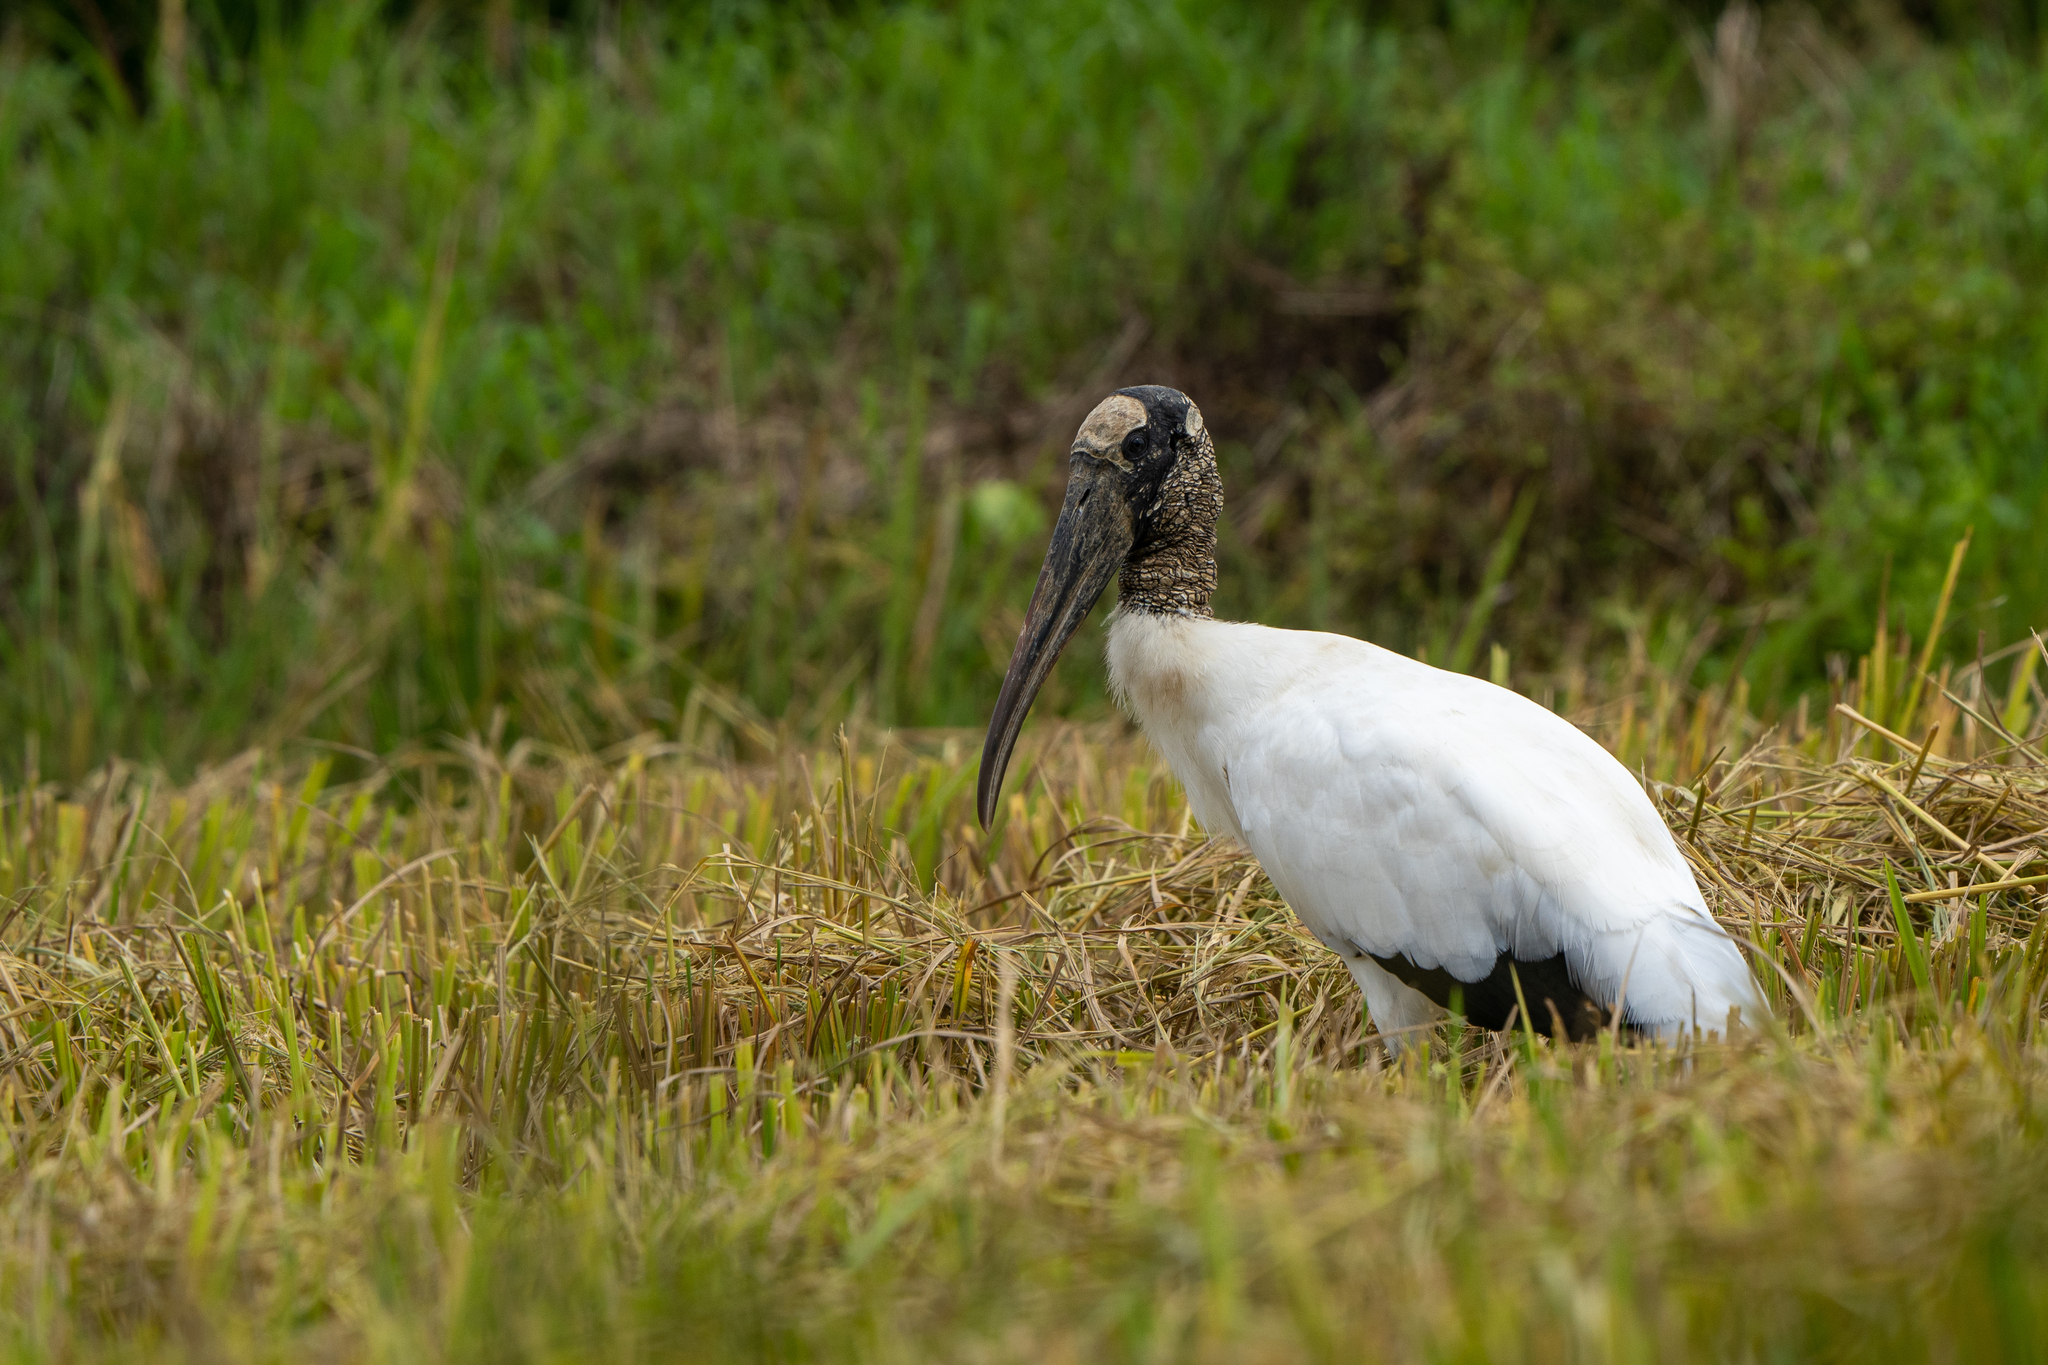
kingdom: Animalia
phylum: Chordata
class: Aves
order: Ciconiiformes
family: Ciconiidae
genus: Mycteria
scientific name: Mycteria americana
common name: Wood stork
